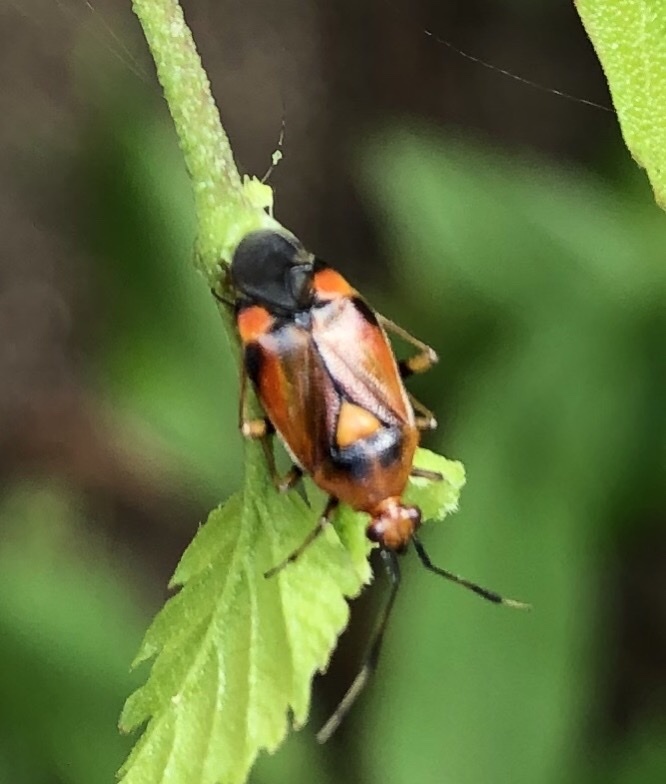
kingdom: Animalia
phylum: Arthropoda
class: Insecta
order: Hemiptera
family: Miridae
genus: Deraeocoris
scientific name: Deraeocoris ruber
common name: Plant bug
